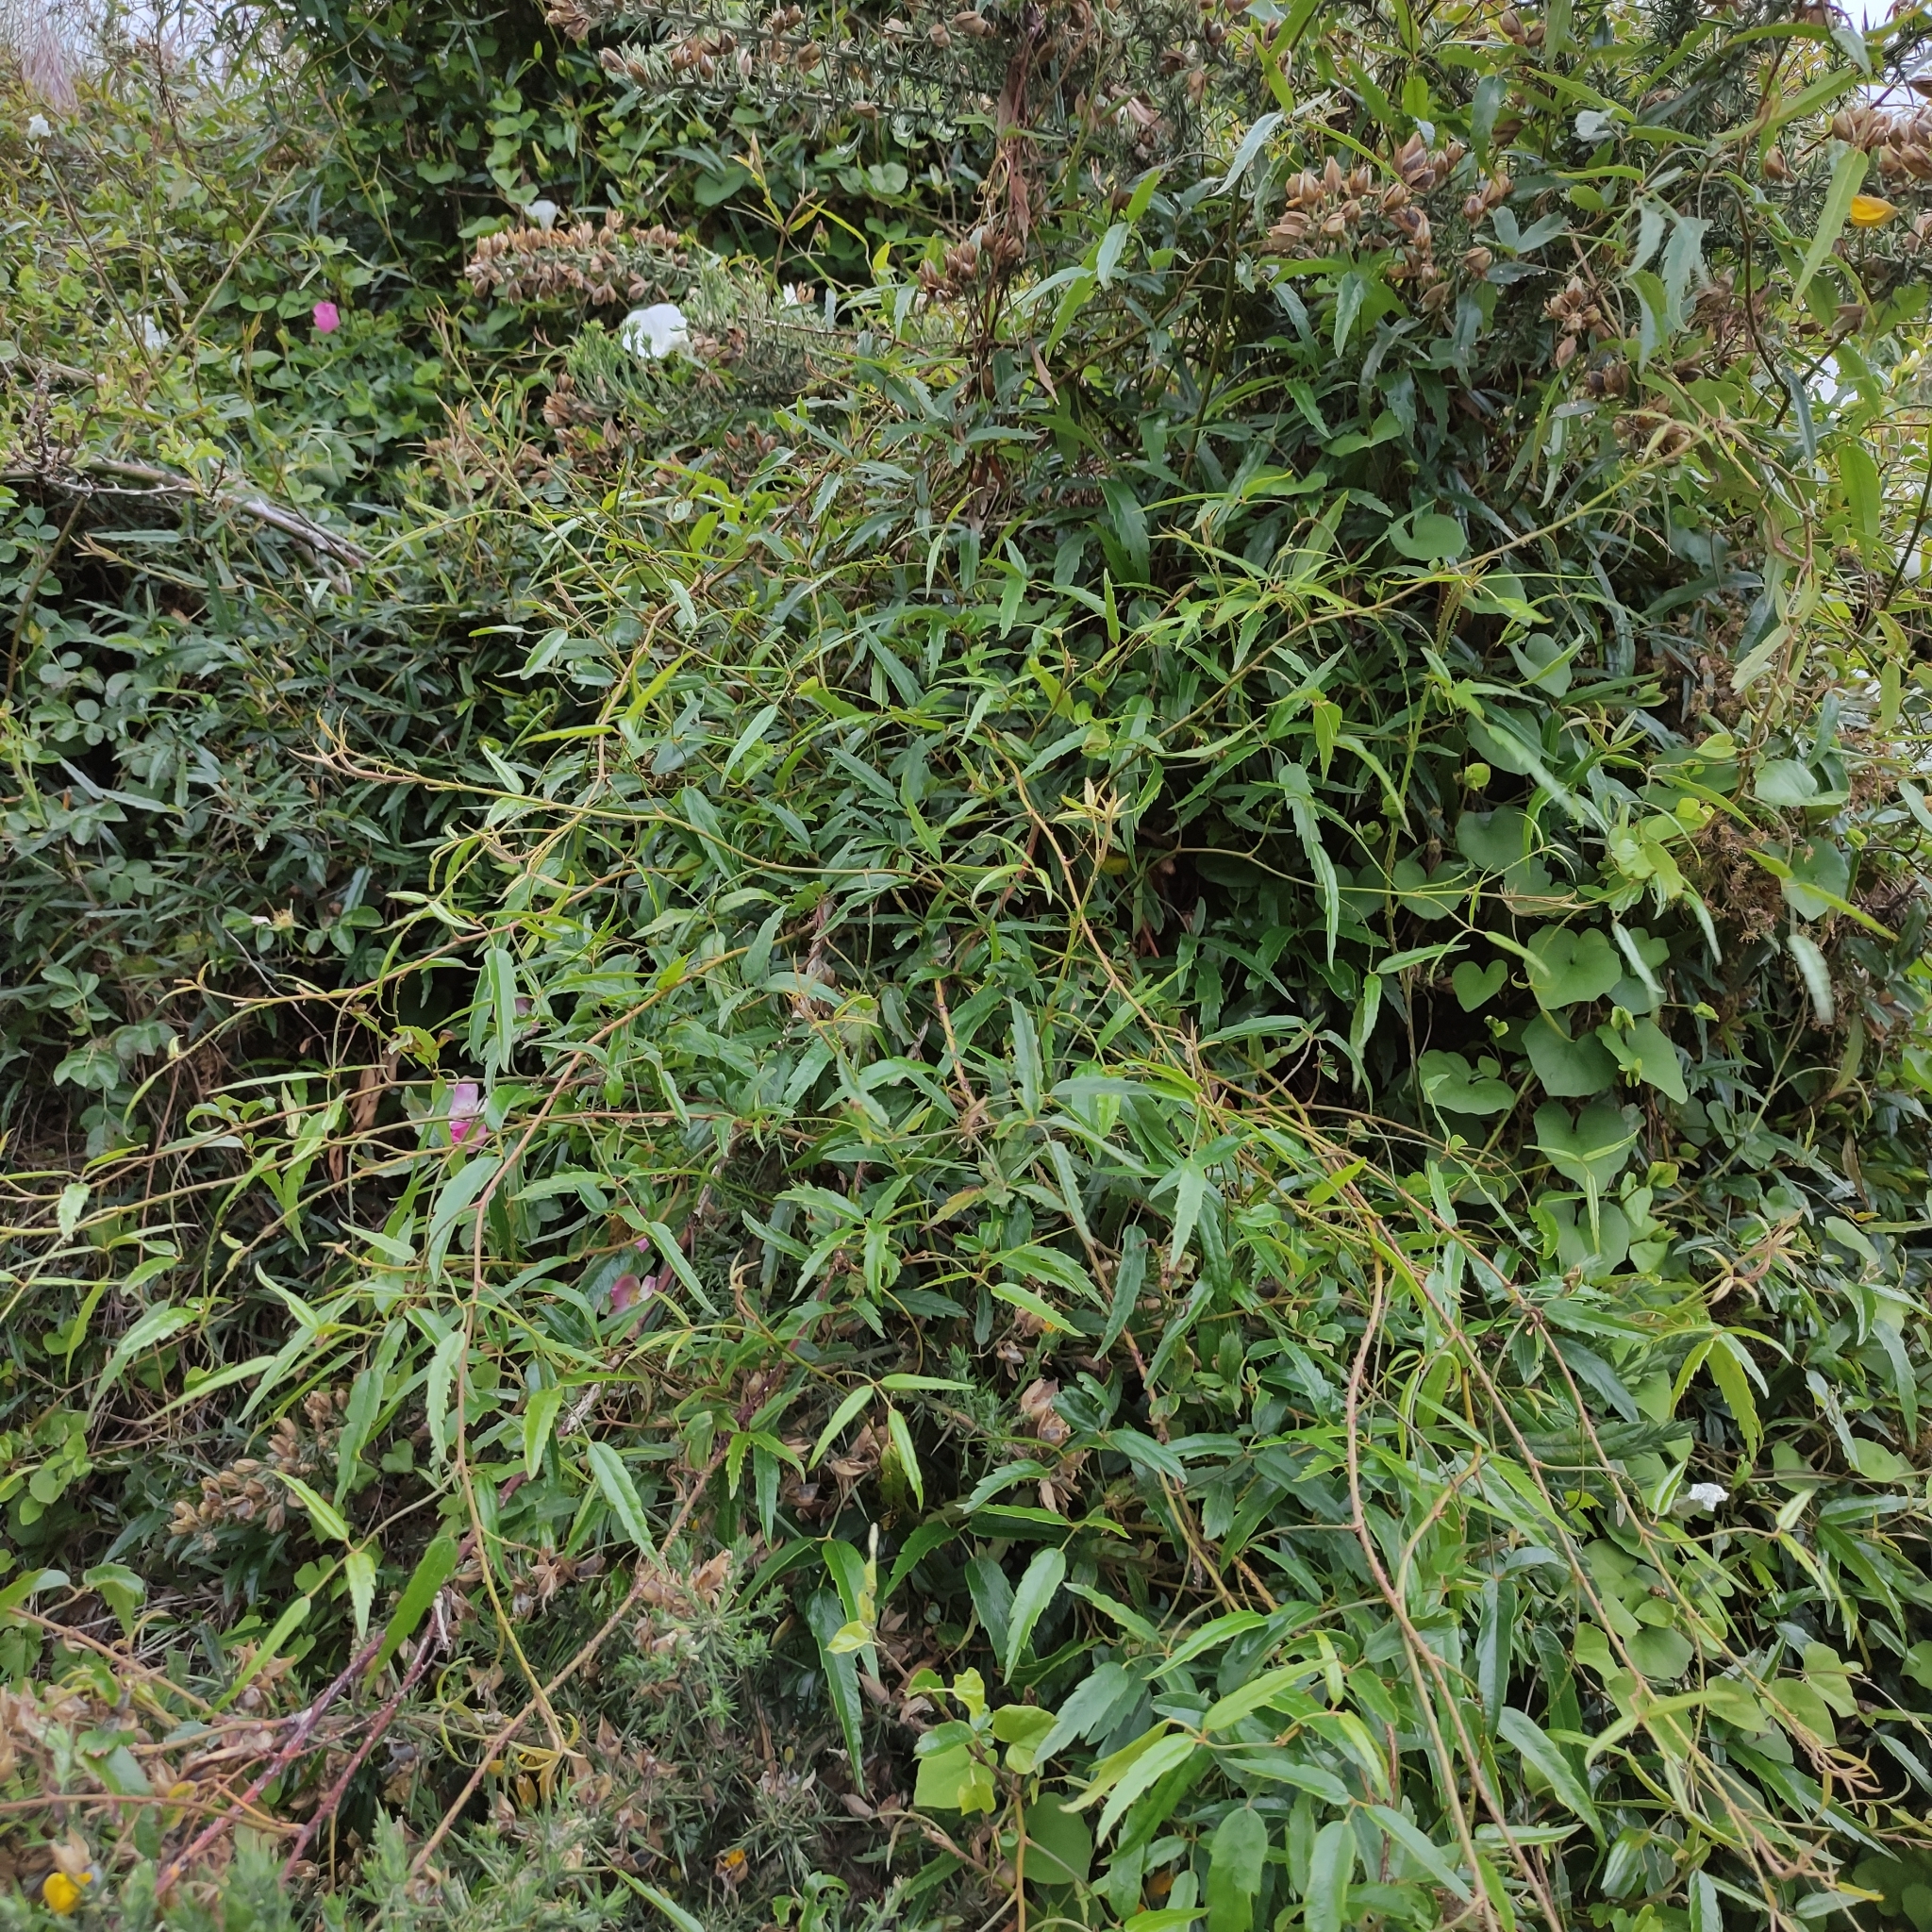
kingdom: Plantae
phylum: Tracheophyta
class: Magnoliopsida
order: Rosales
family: Rosaceae
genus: Rubus
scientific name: Rubus schmidelioides
